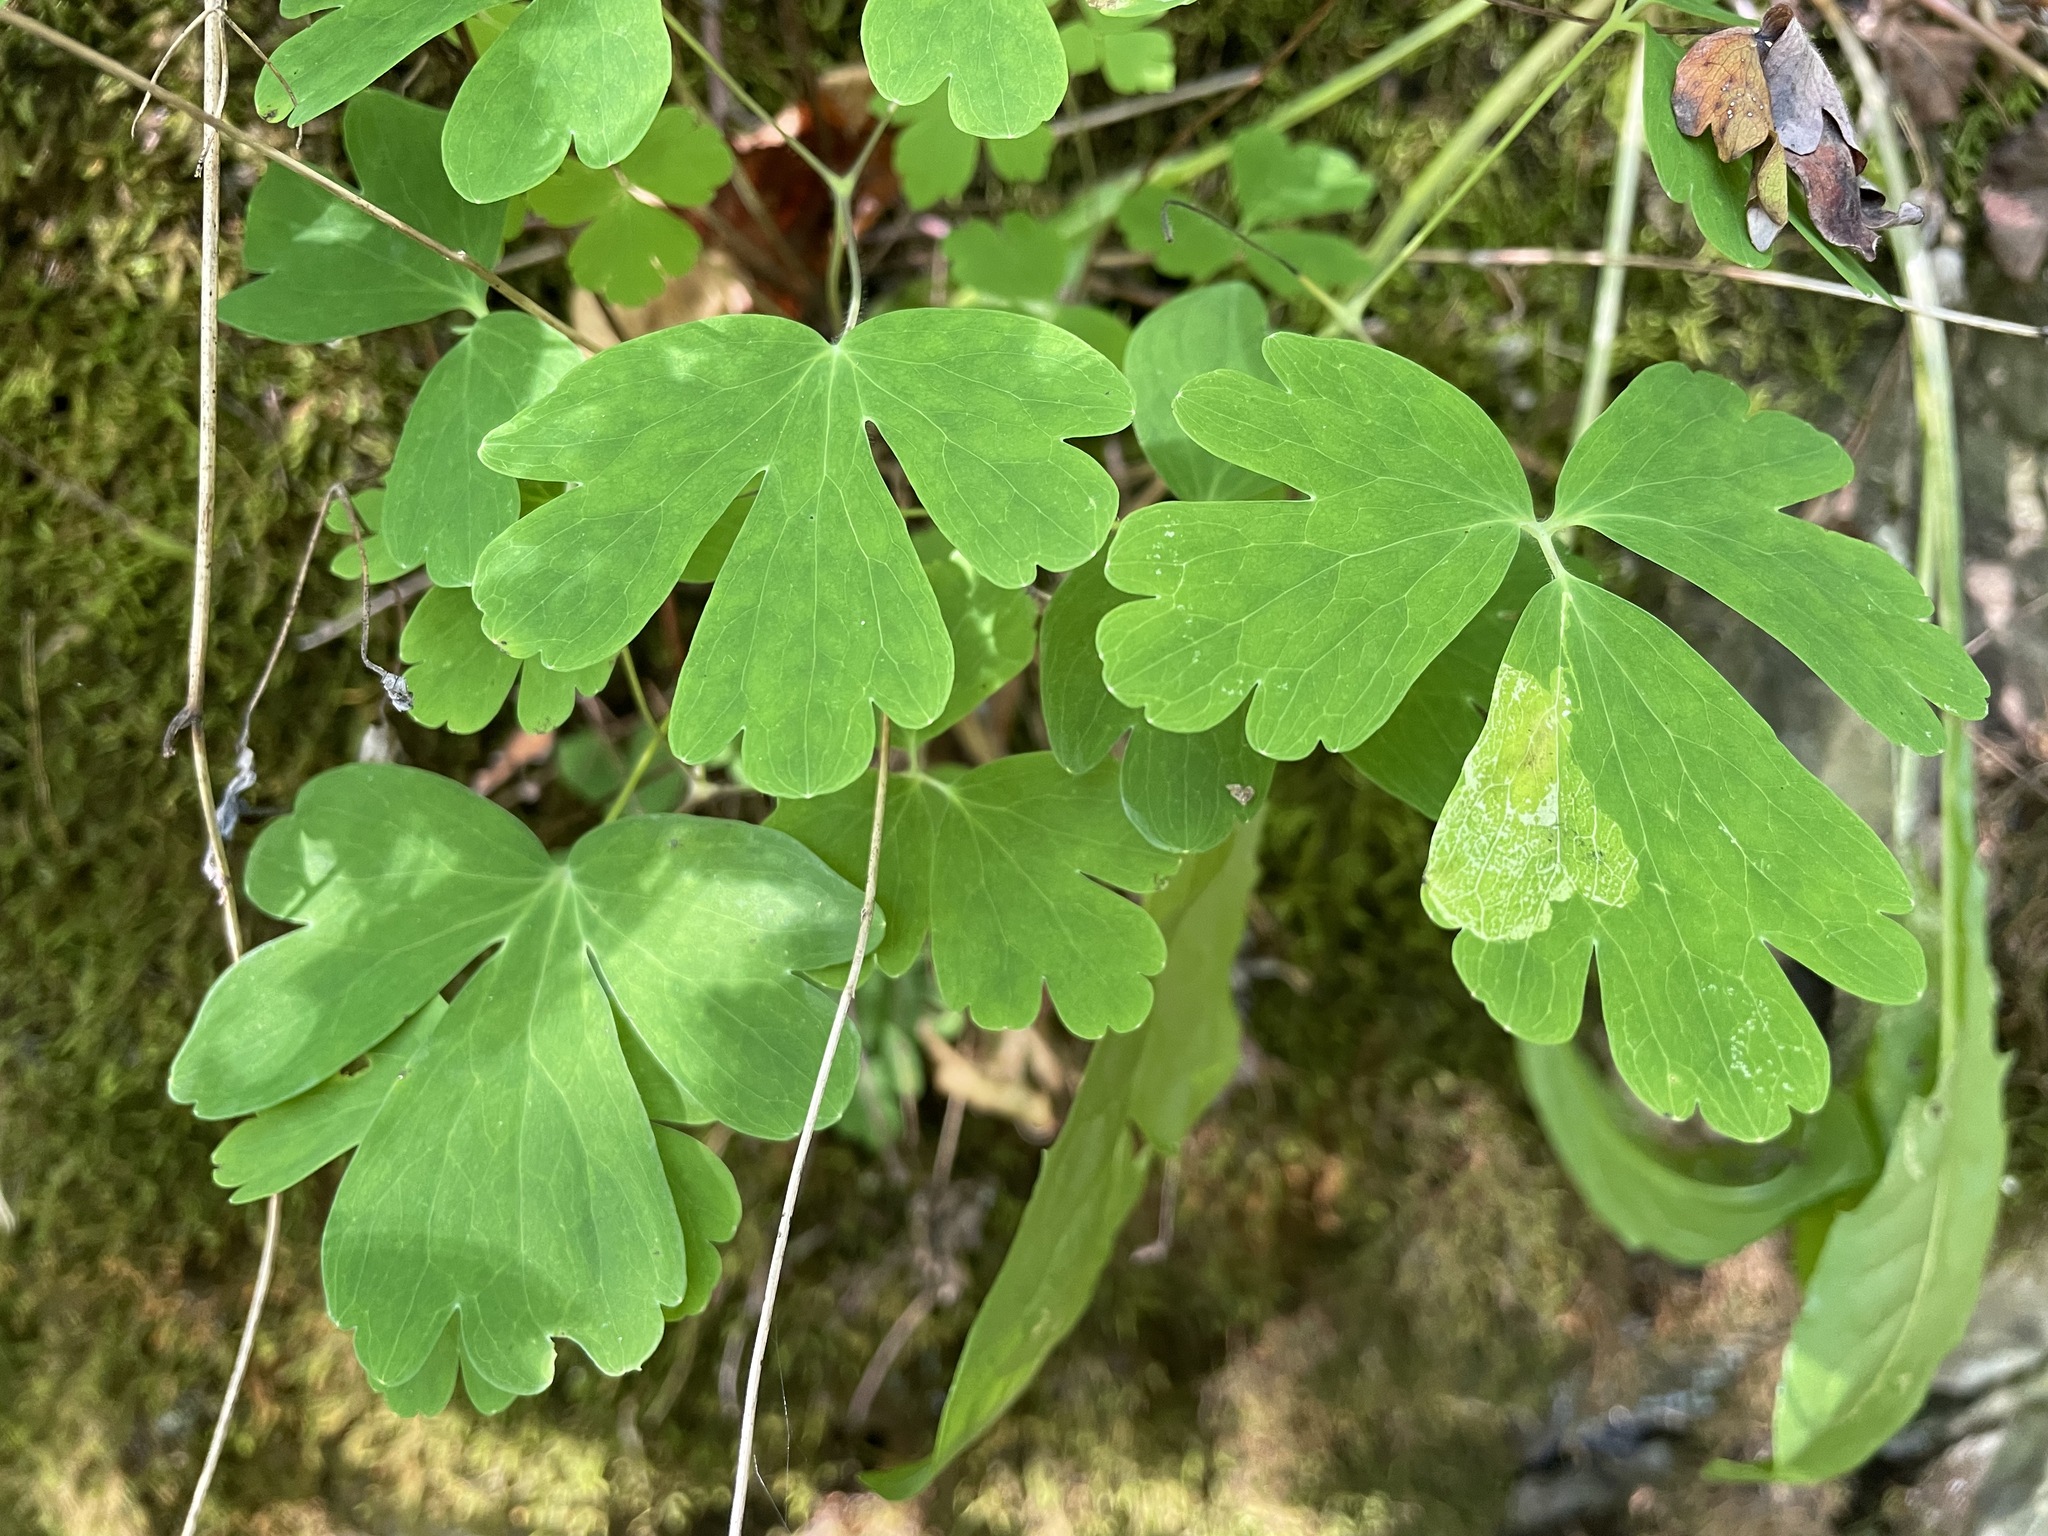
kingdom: Plantae
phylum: Tracheophyta
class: Magnoliopsida
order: Ranunculales
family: Ranunculaceae
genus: Aquilegia
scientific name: Aquilegia canadensis
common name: American columbine
